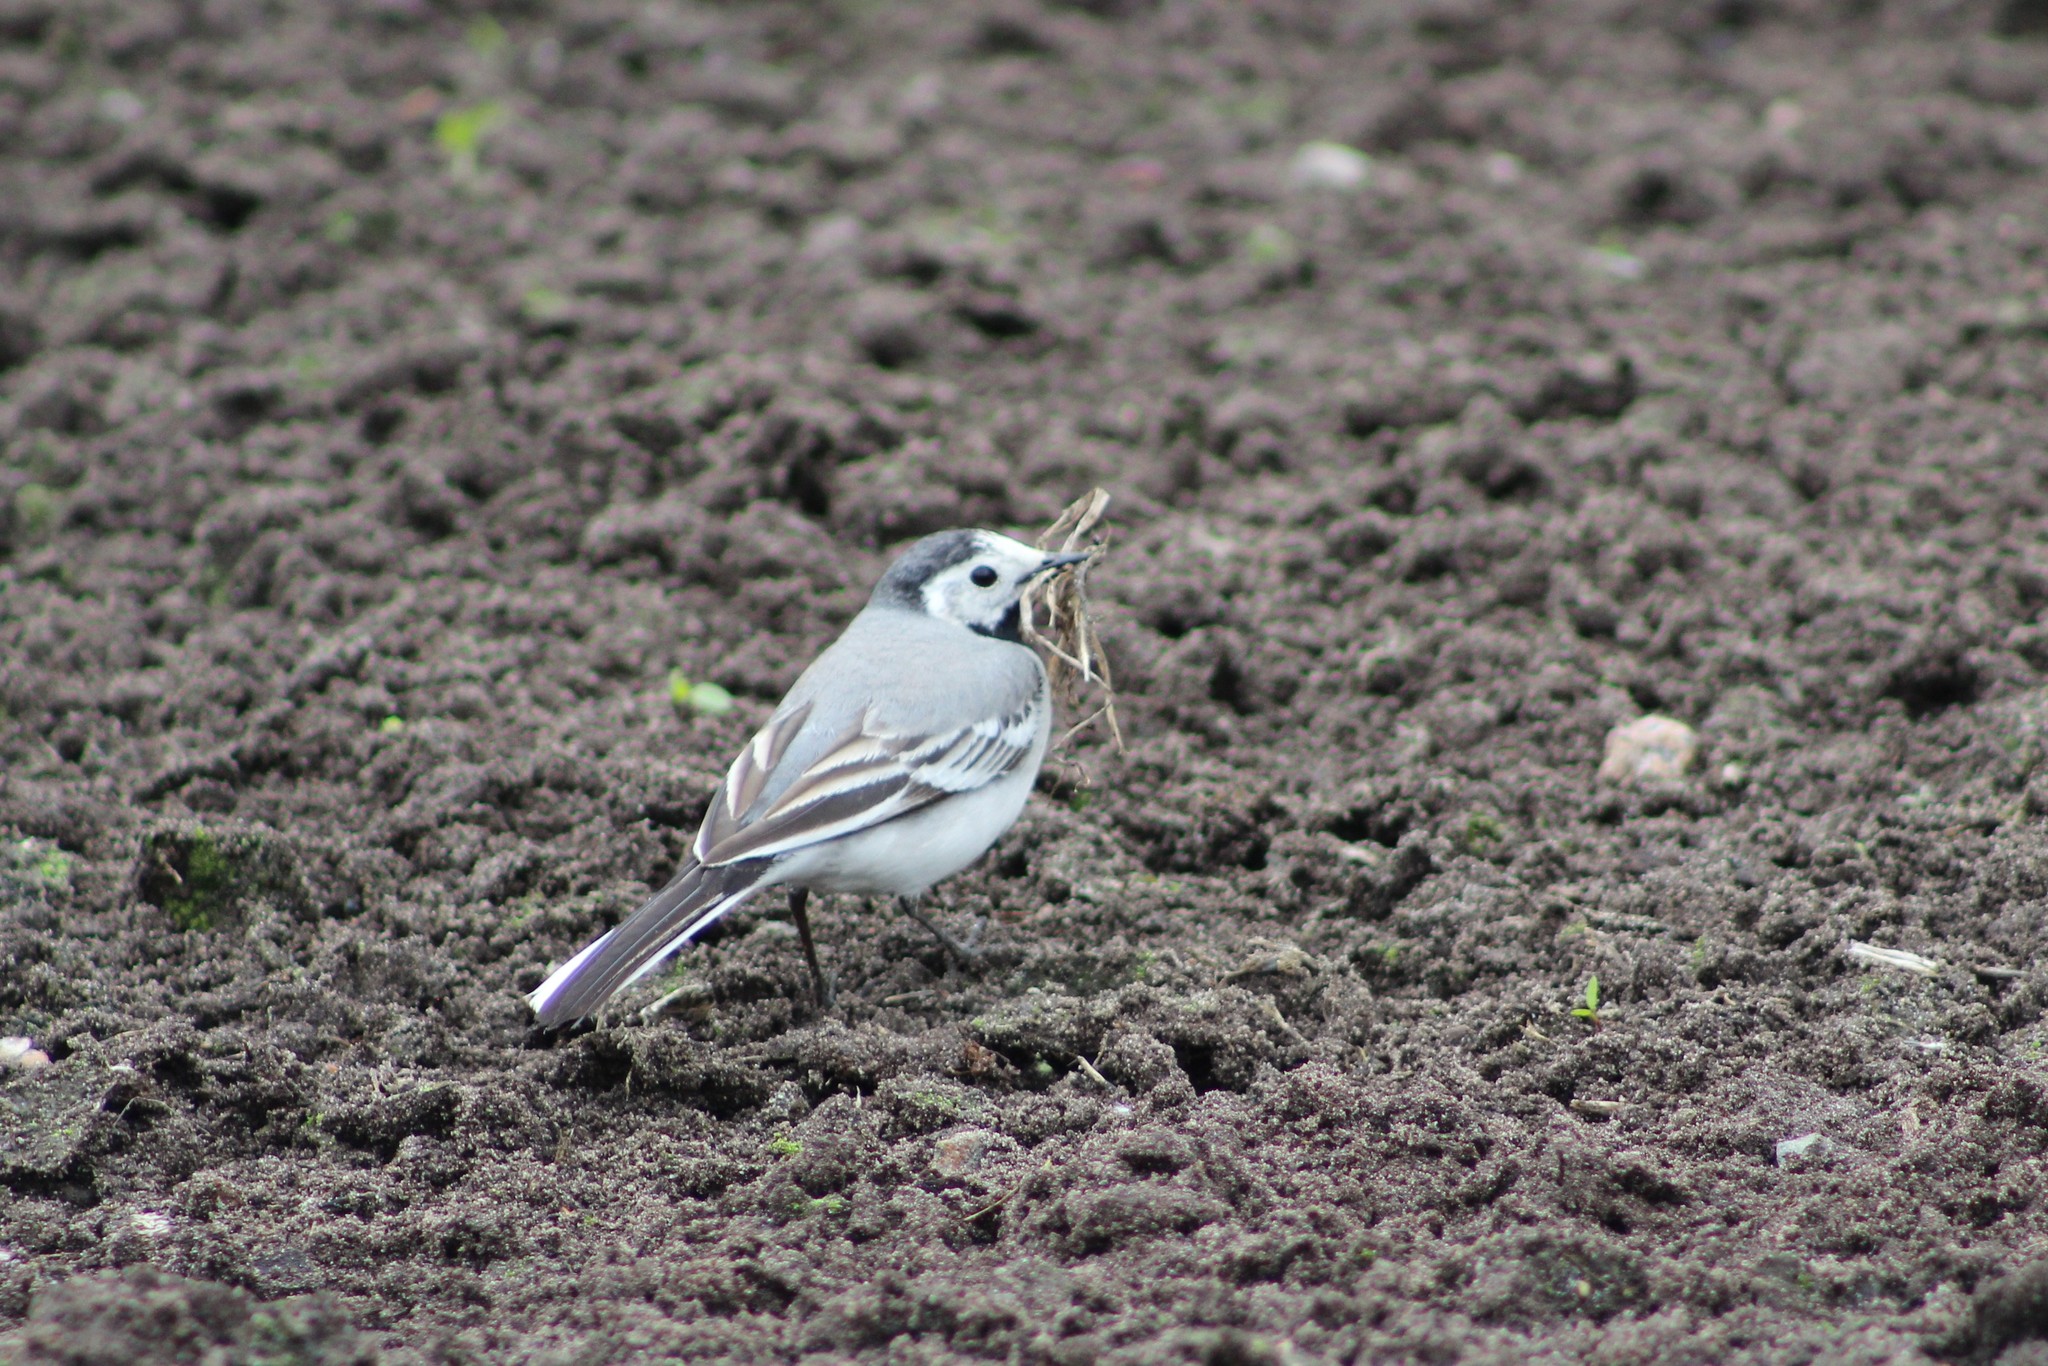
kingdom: Animalia
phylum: Chordata
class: Aves
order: Passeriformes
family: Motacillidae
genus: Motacilla
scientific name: Motacilla alba
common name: White wagtail
